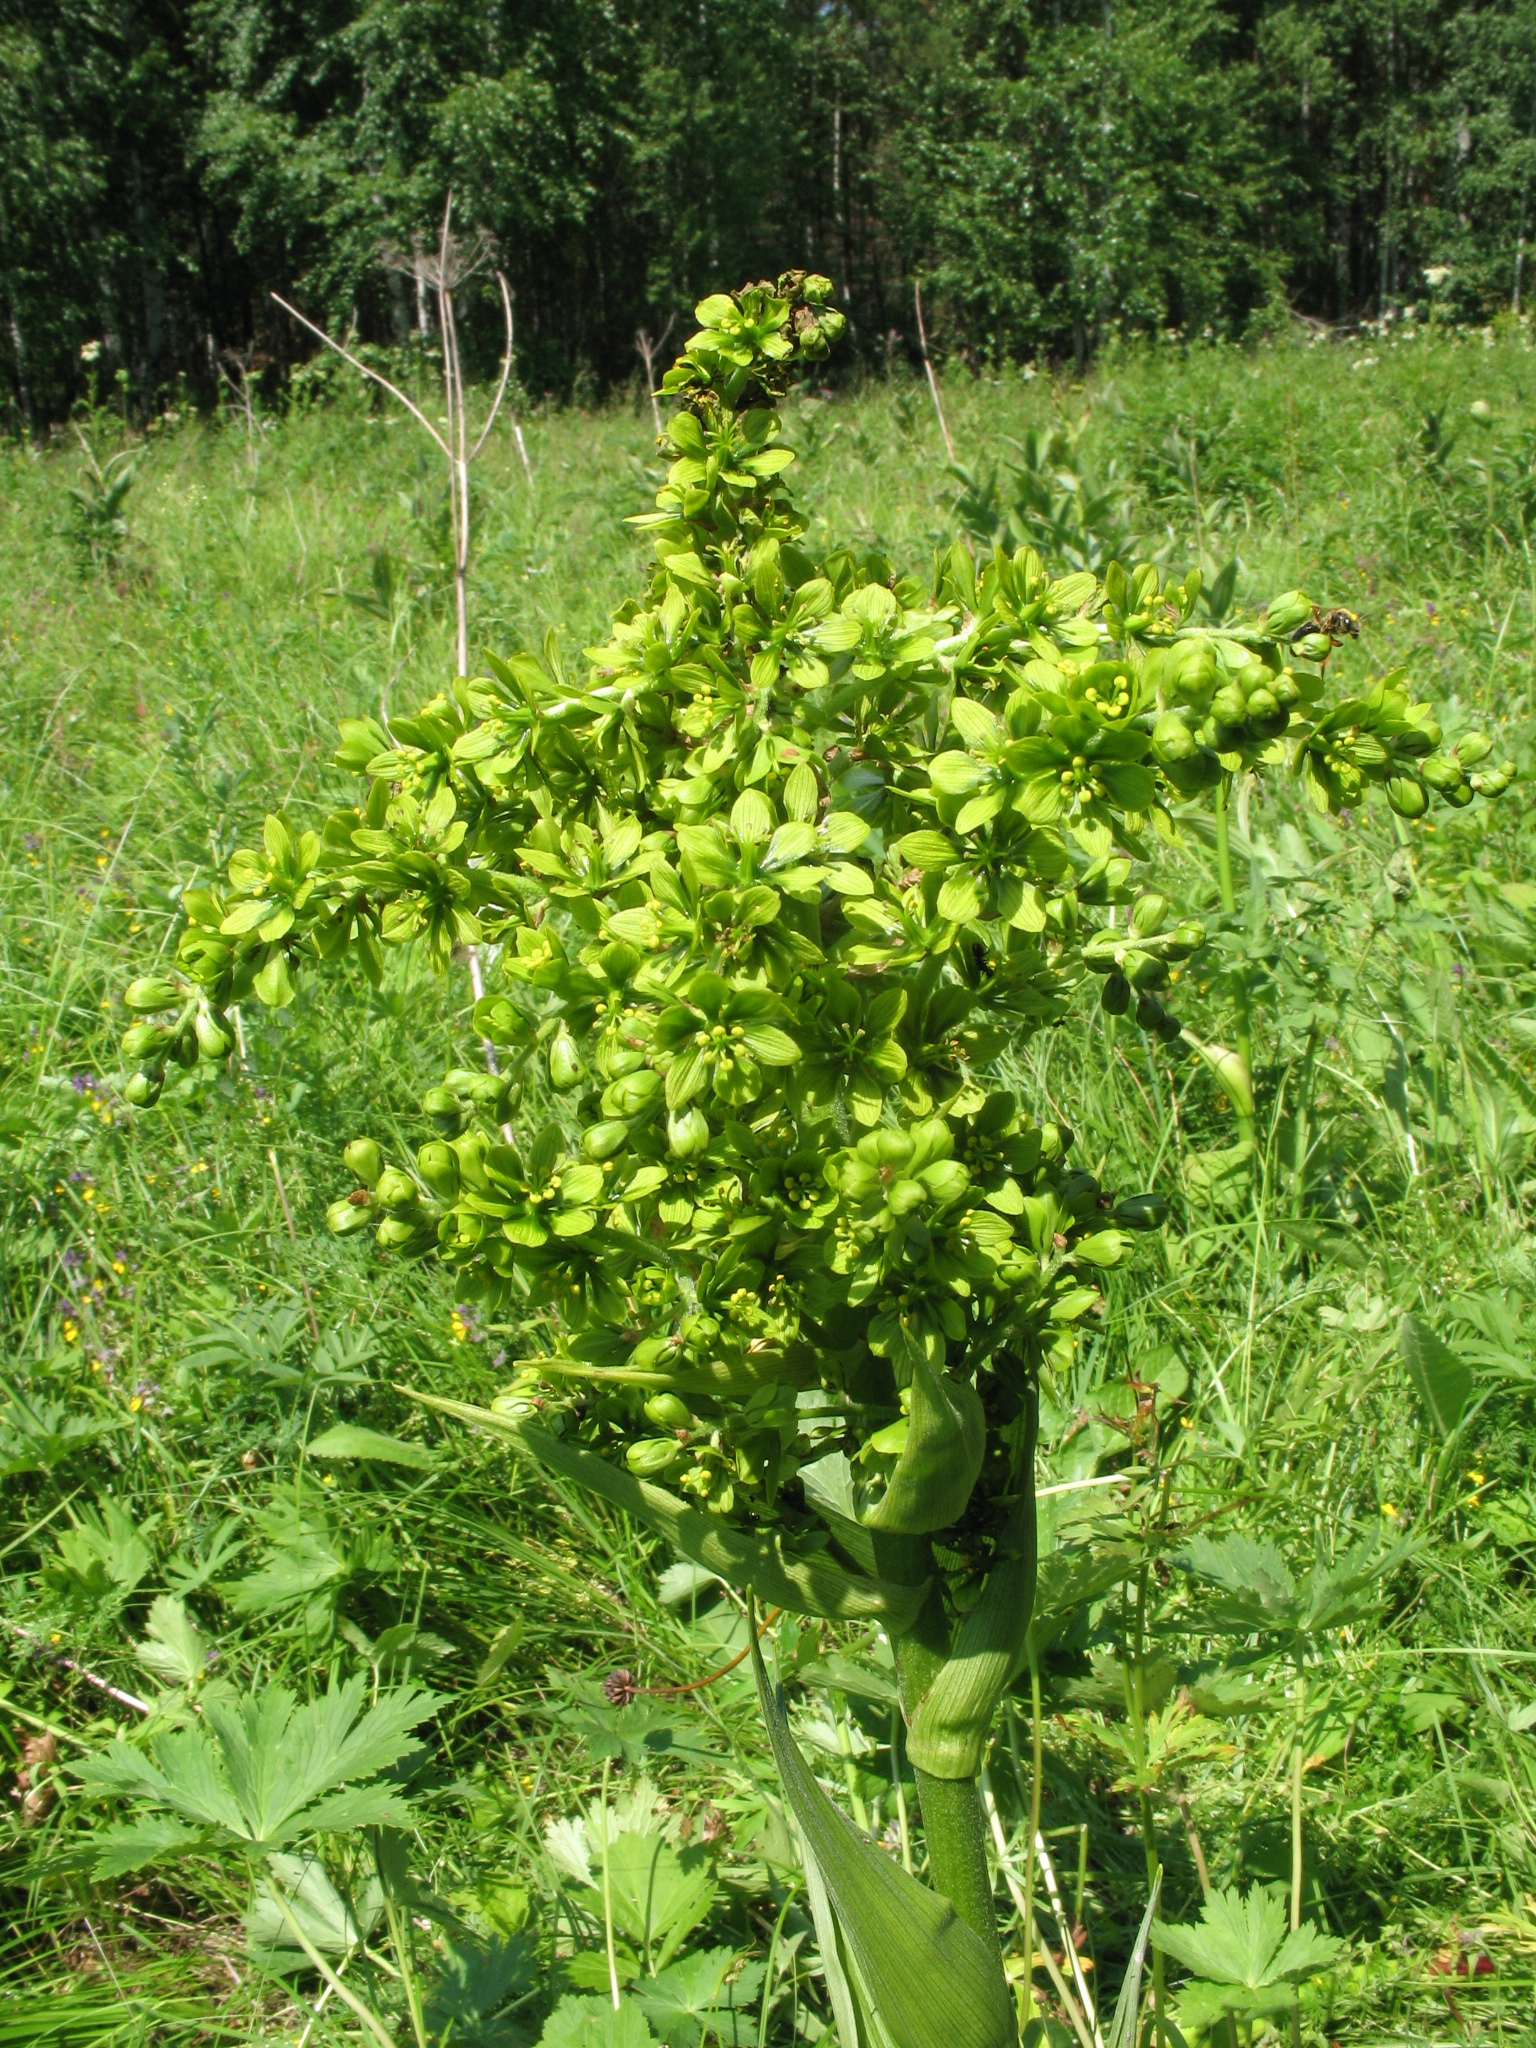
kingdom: Plantae
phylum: Tracheophyta
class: Liliopsida
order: Liliales
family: Melanthiaceae
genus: Veratrum
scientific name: Veratrum lobelianum
